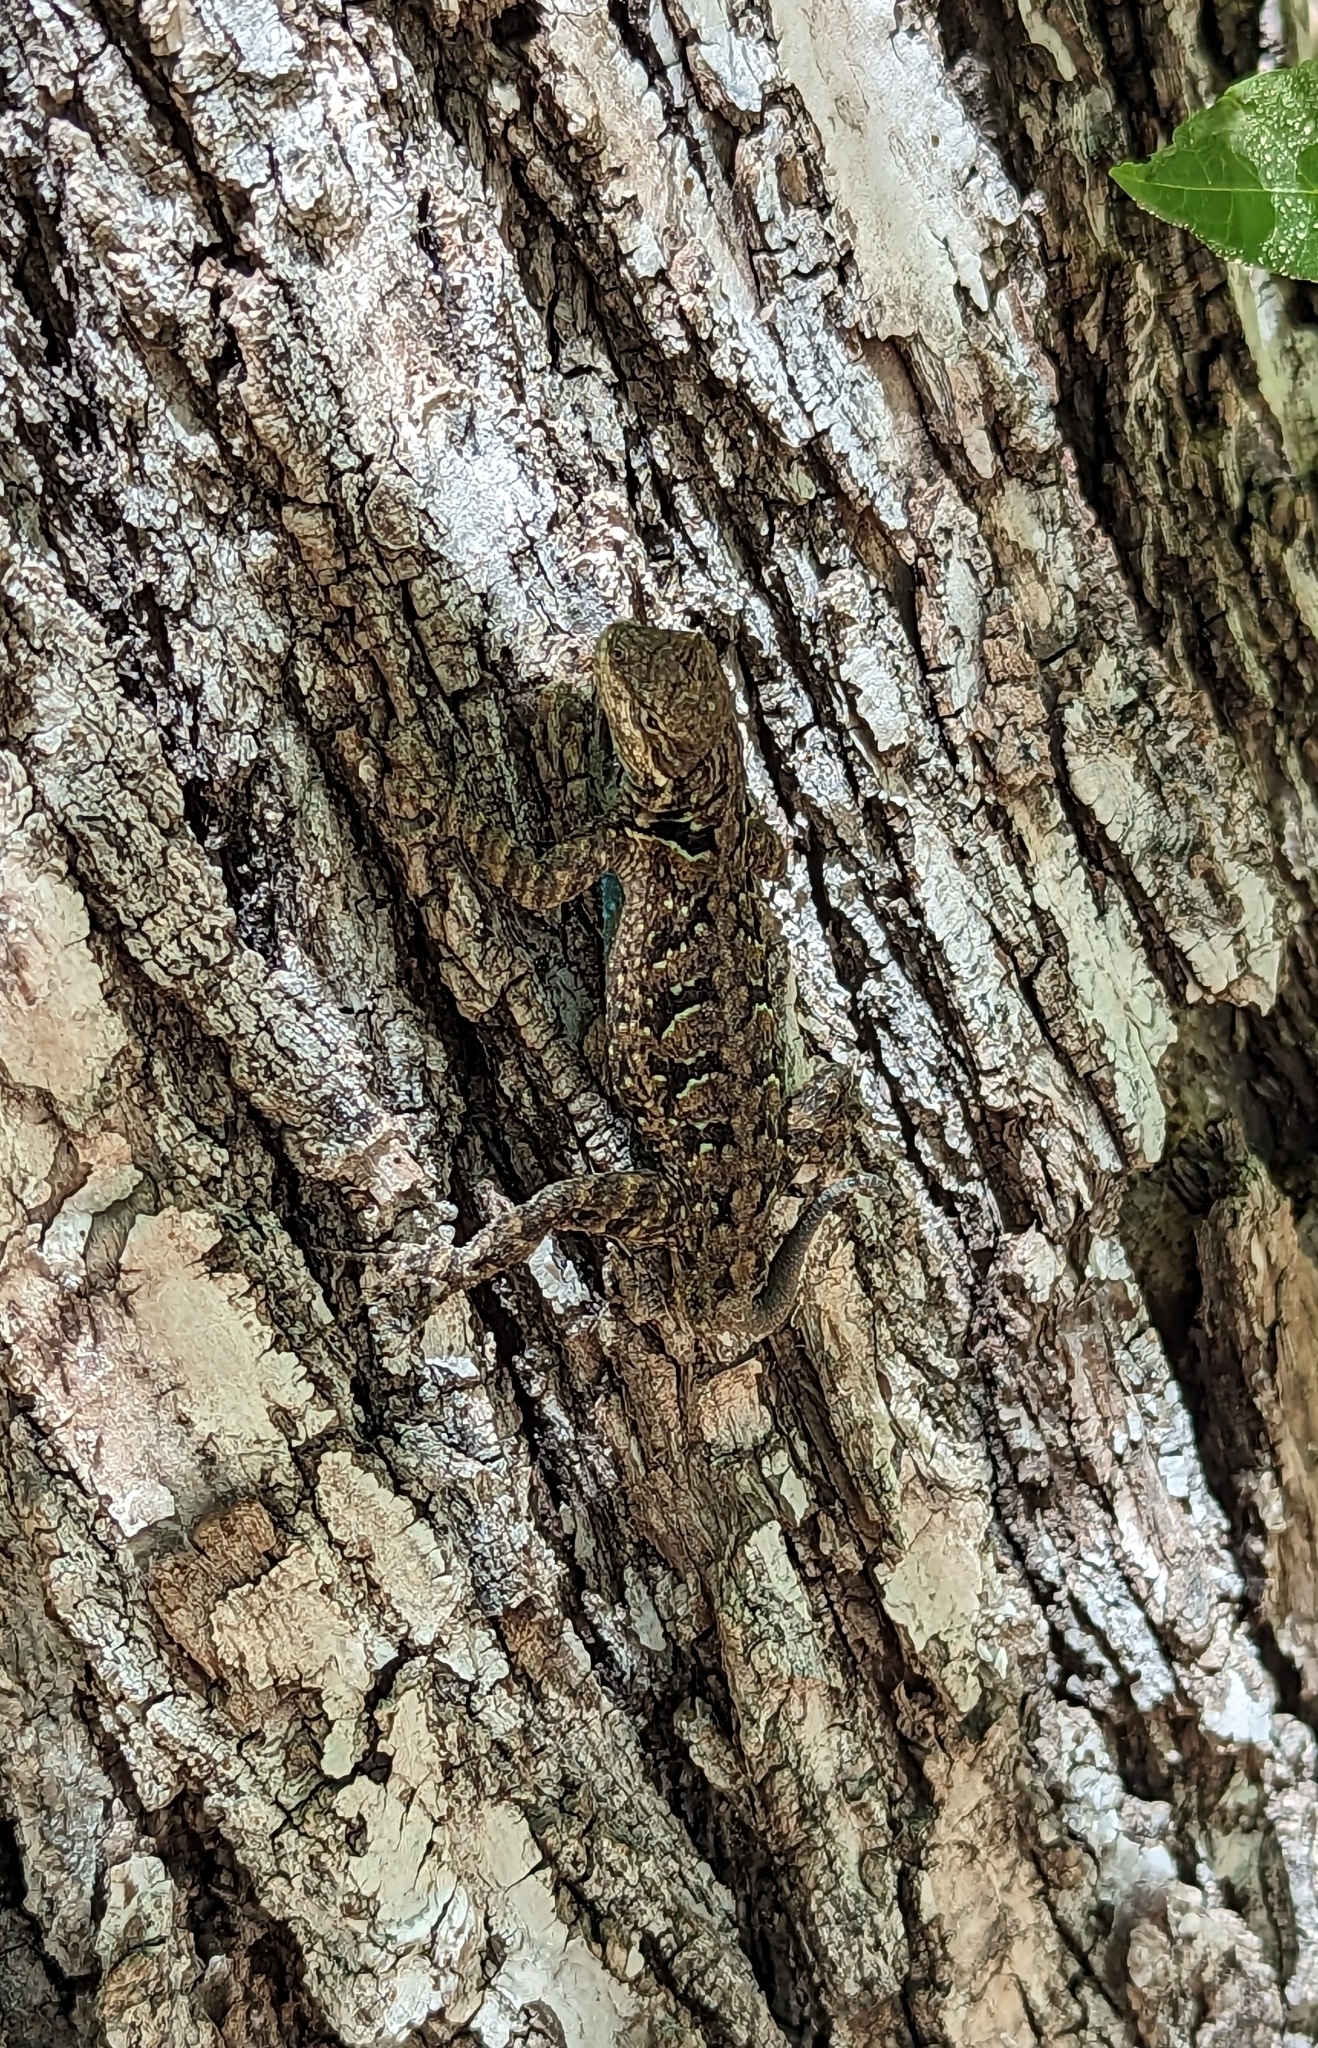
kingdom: Animalia
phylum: Chordata
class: Squamata
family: Phrynosomatidae
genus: Urosaurus
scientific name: Urosaurus ornatus
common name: Ornate tree lizard
